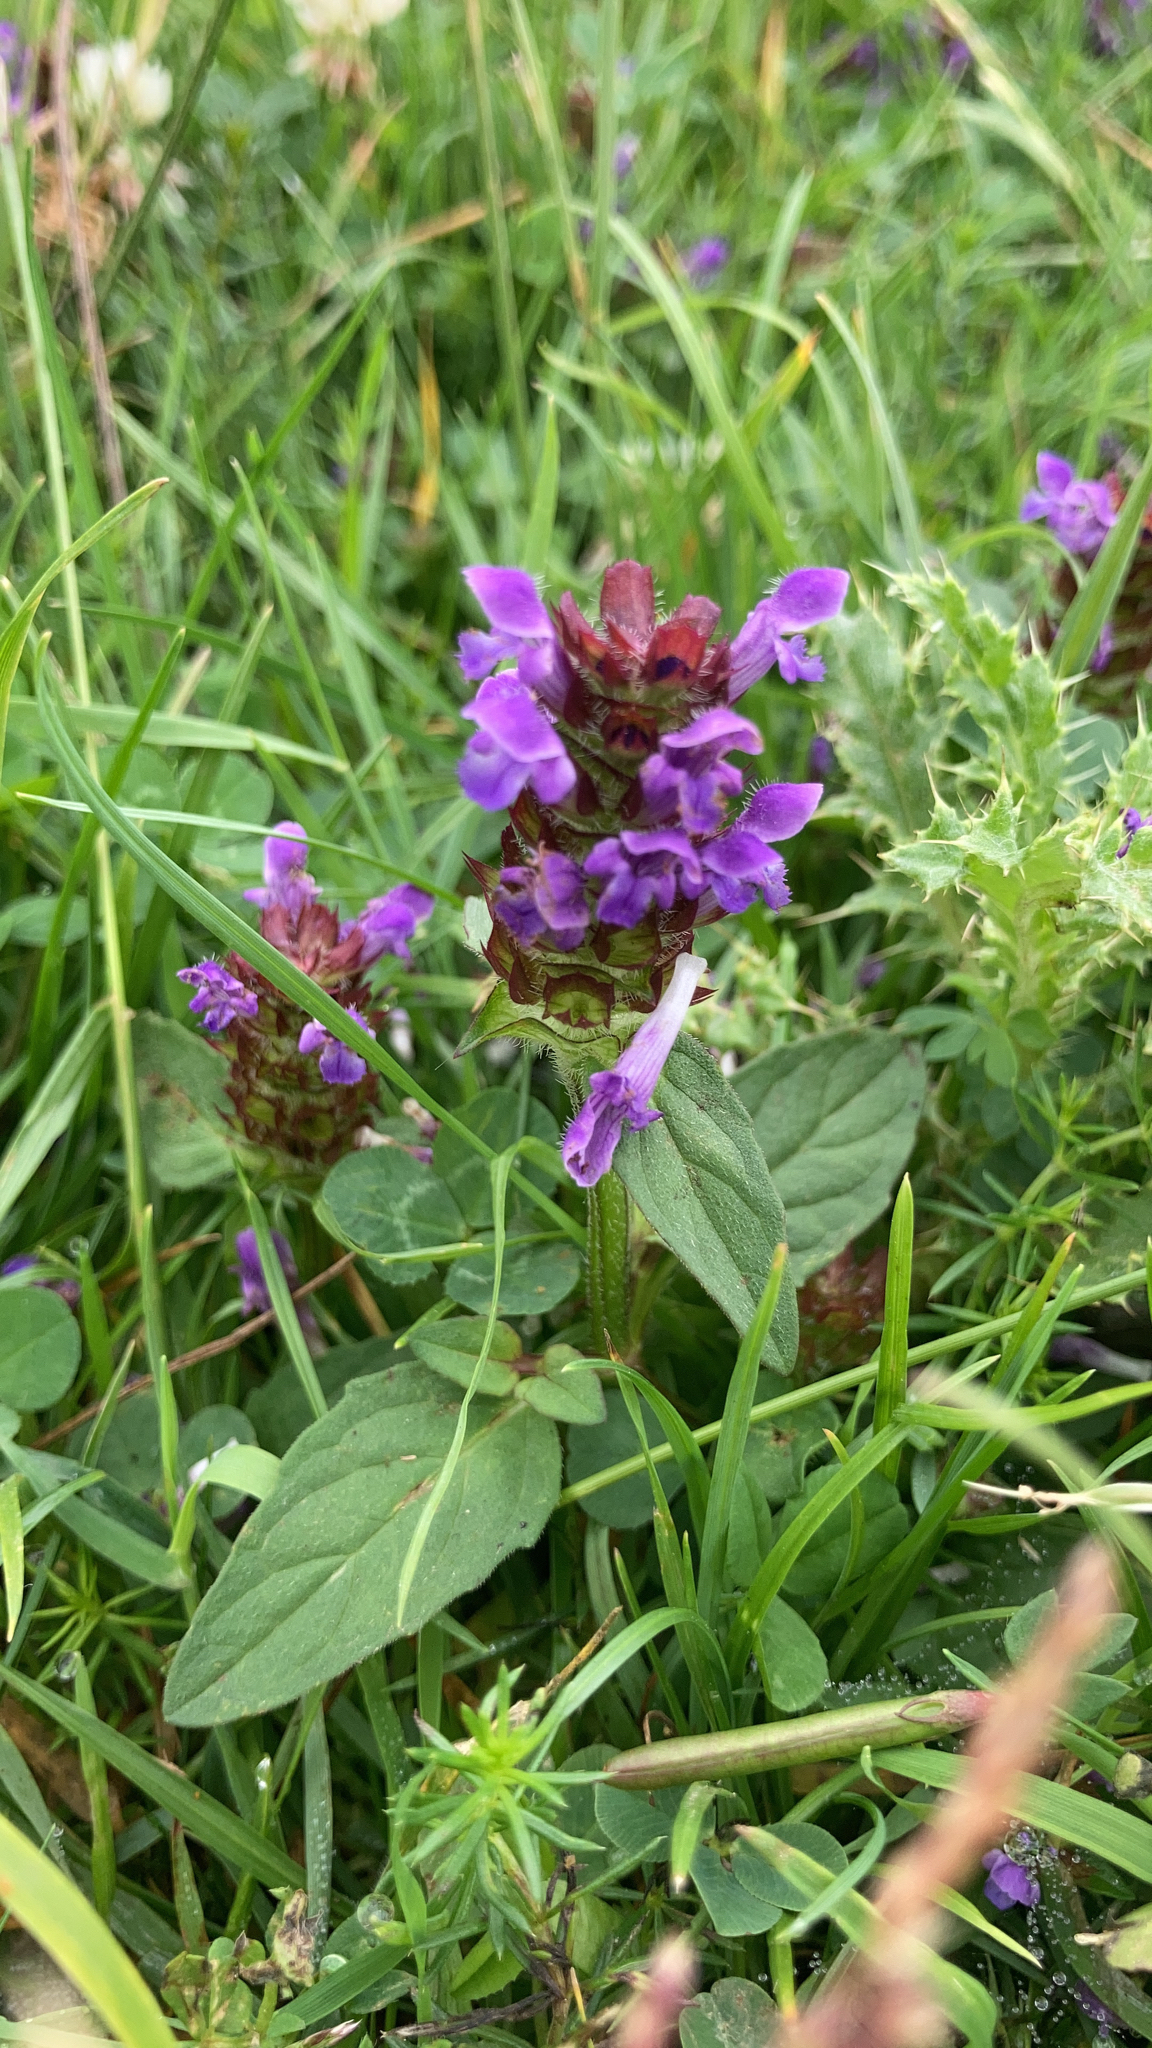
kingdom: Plantae
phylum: Tracheophyta
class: Magnoliopsida
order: Lamiales
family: Lamiaceae
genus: Prunella
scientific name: Prunella vulgaris
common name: Heal-all
